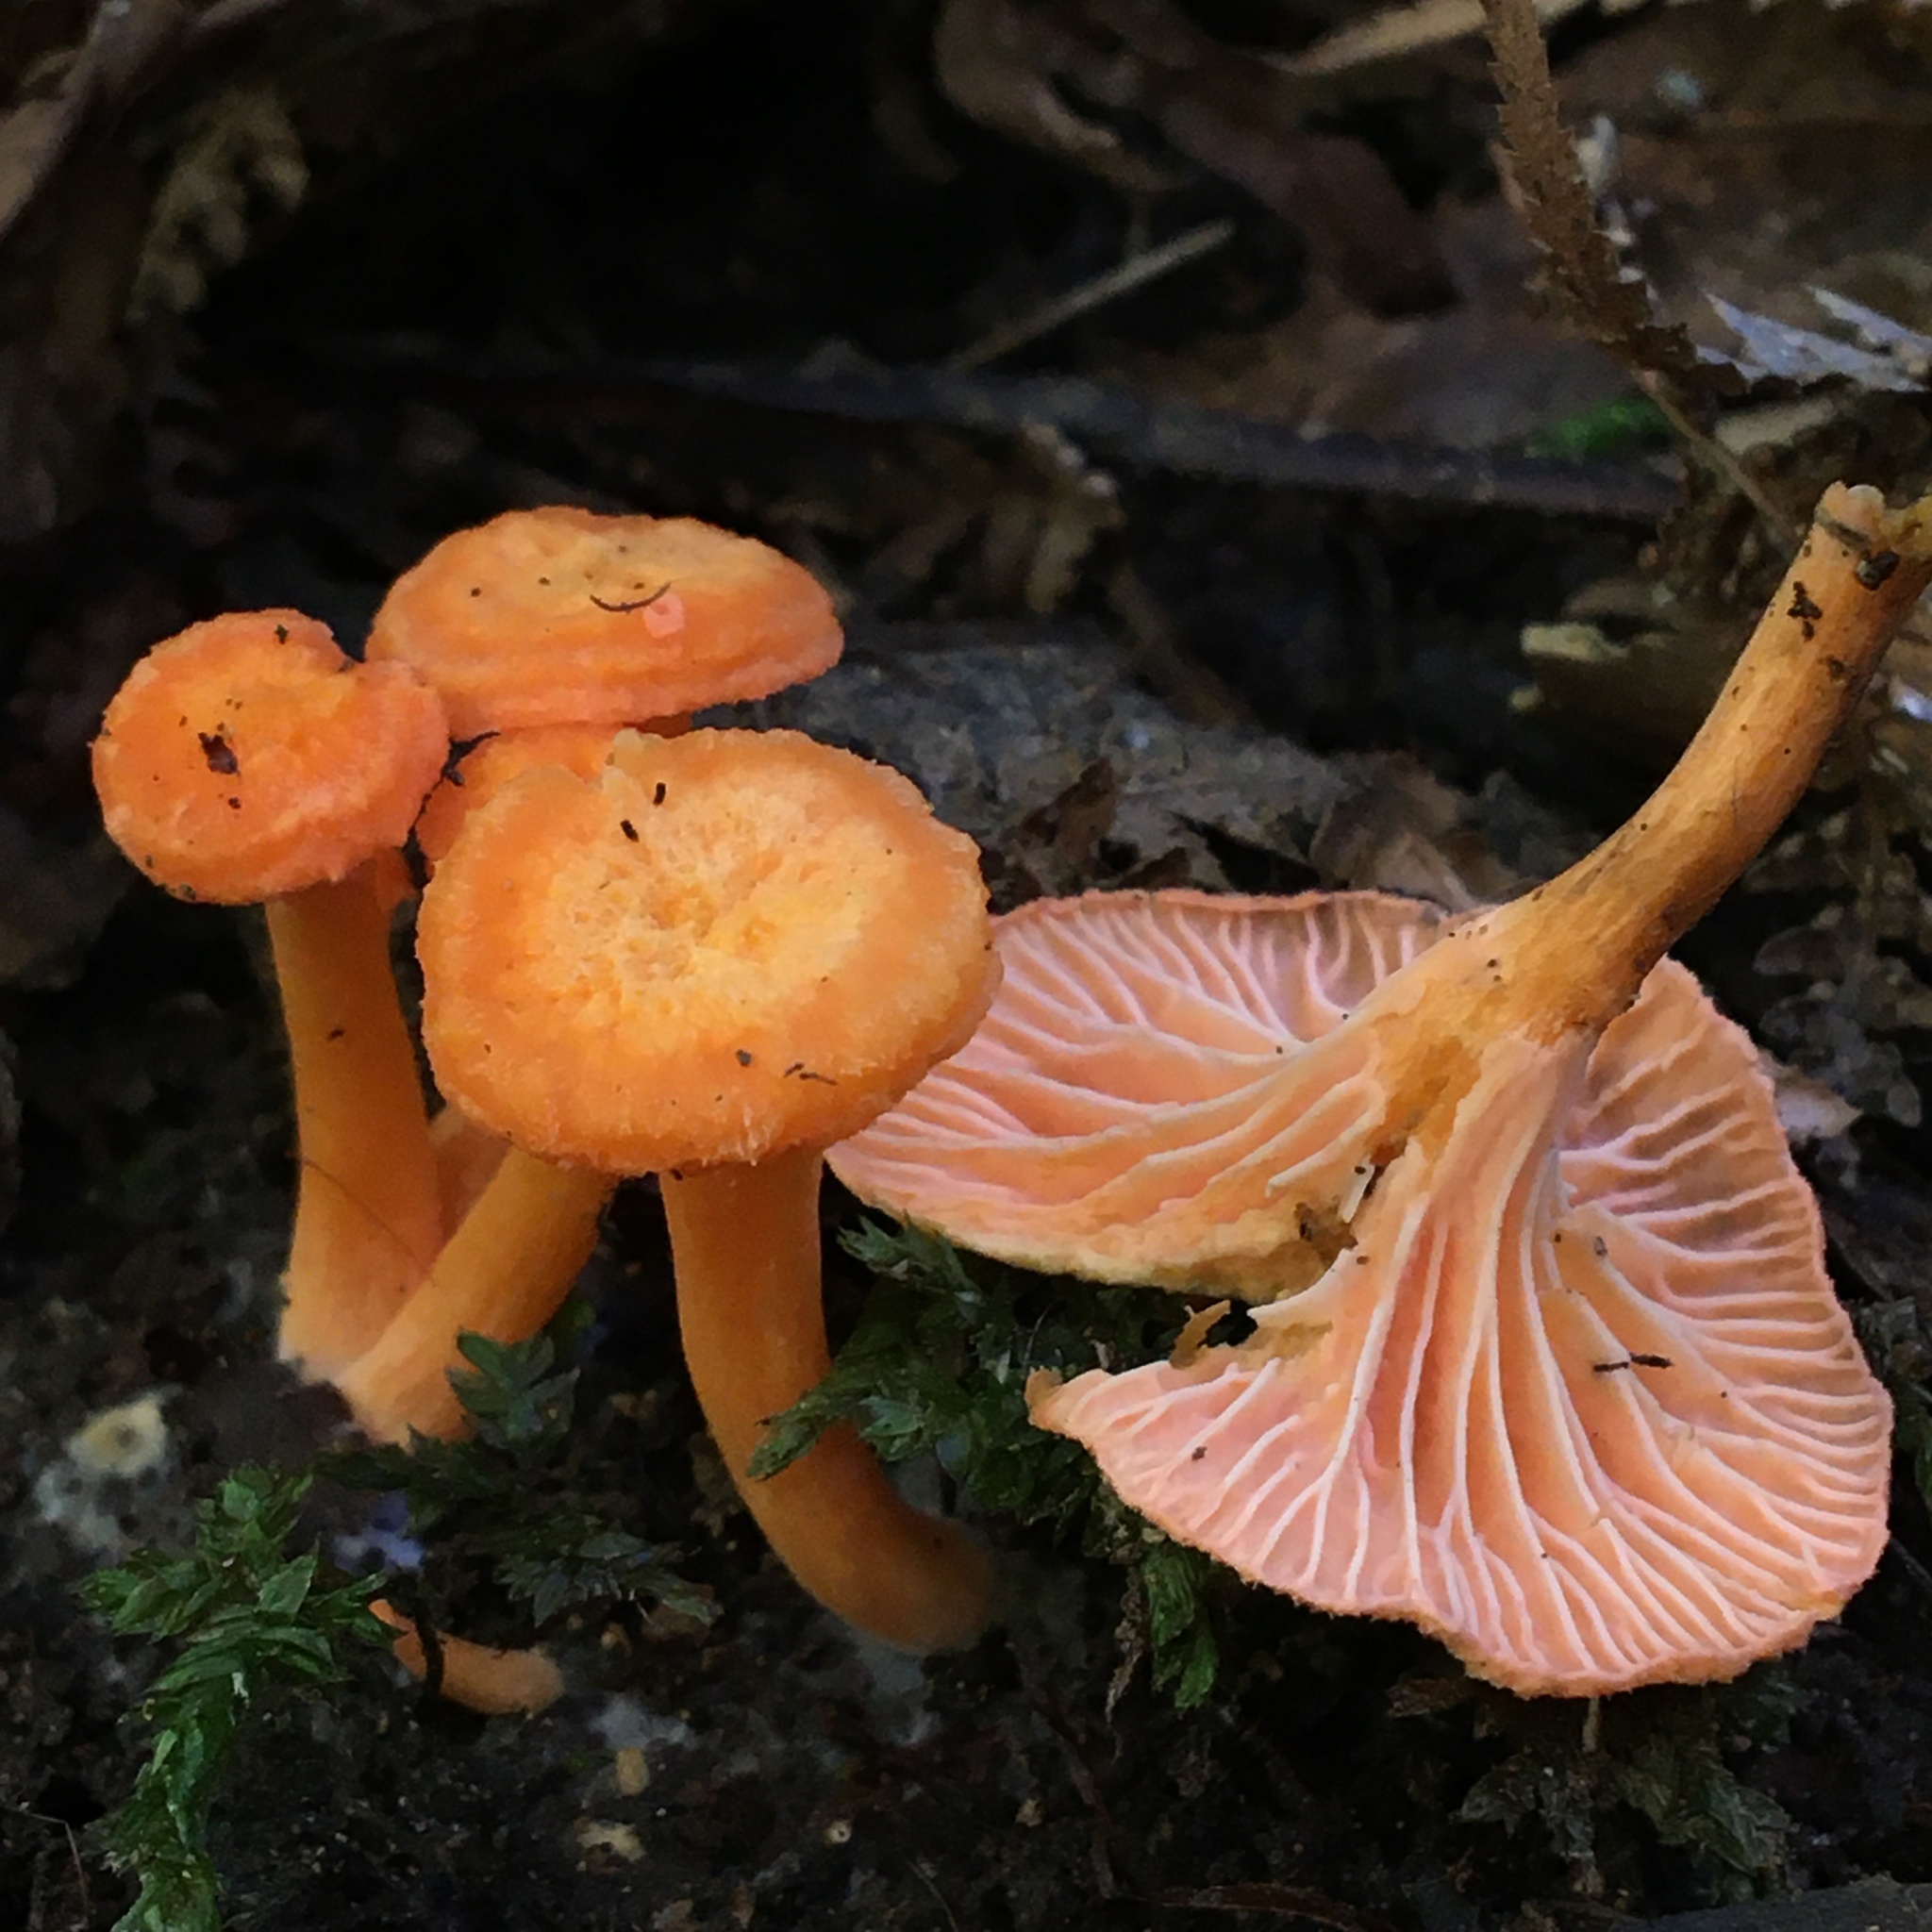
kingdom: Fungi
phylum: Basidiomycota
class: Agaricomycetes
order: Cantharellales
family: Hydnaceae
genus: Cantharellus
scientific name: Cantharellus
